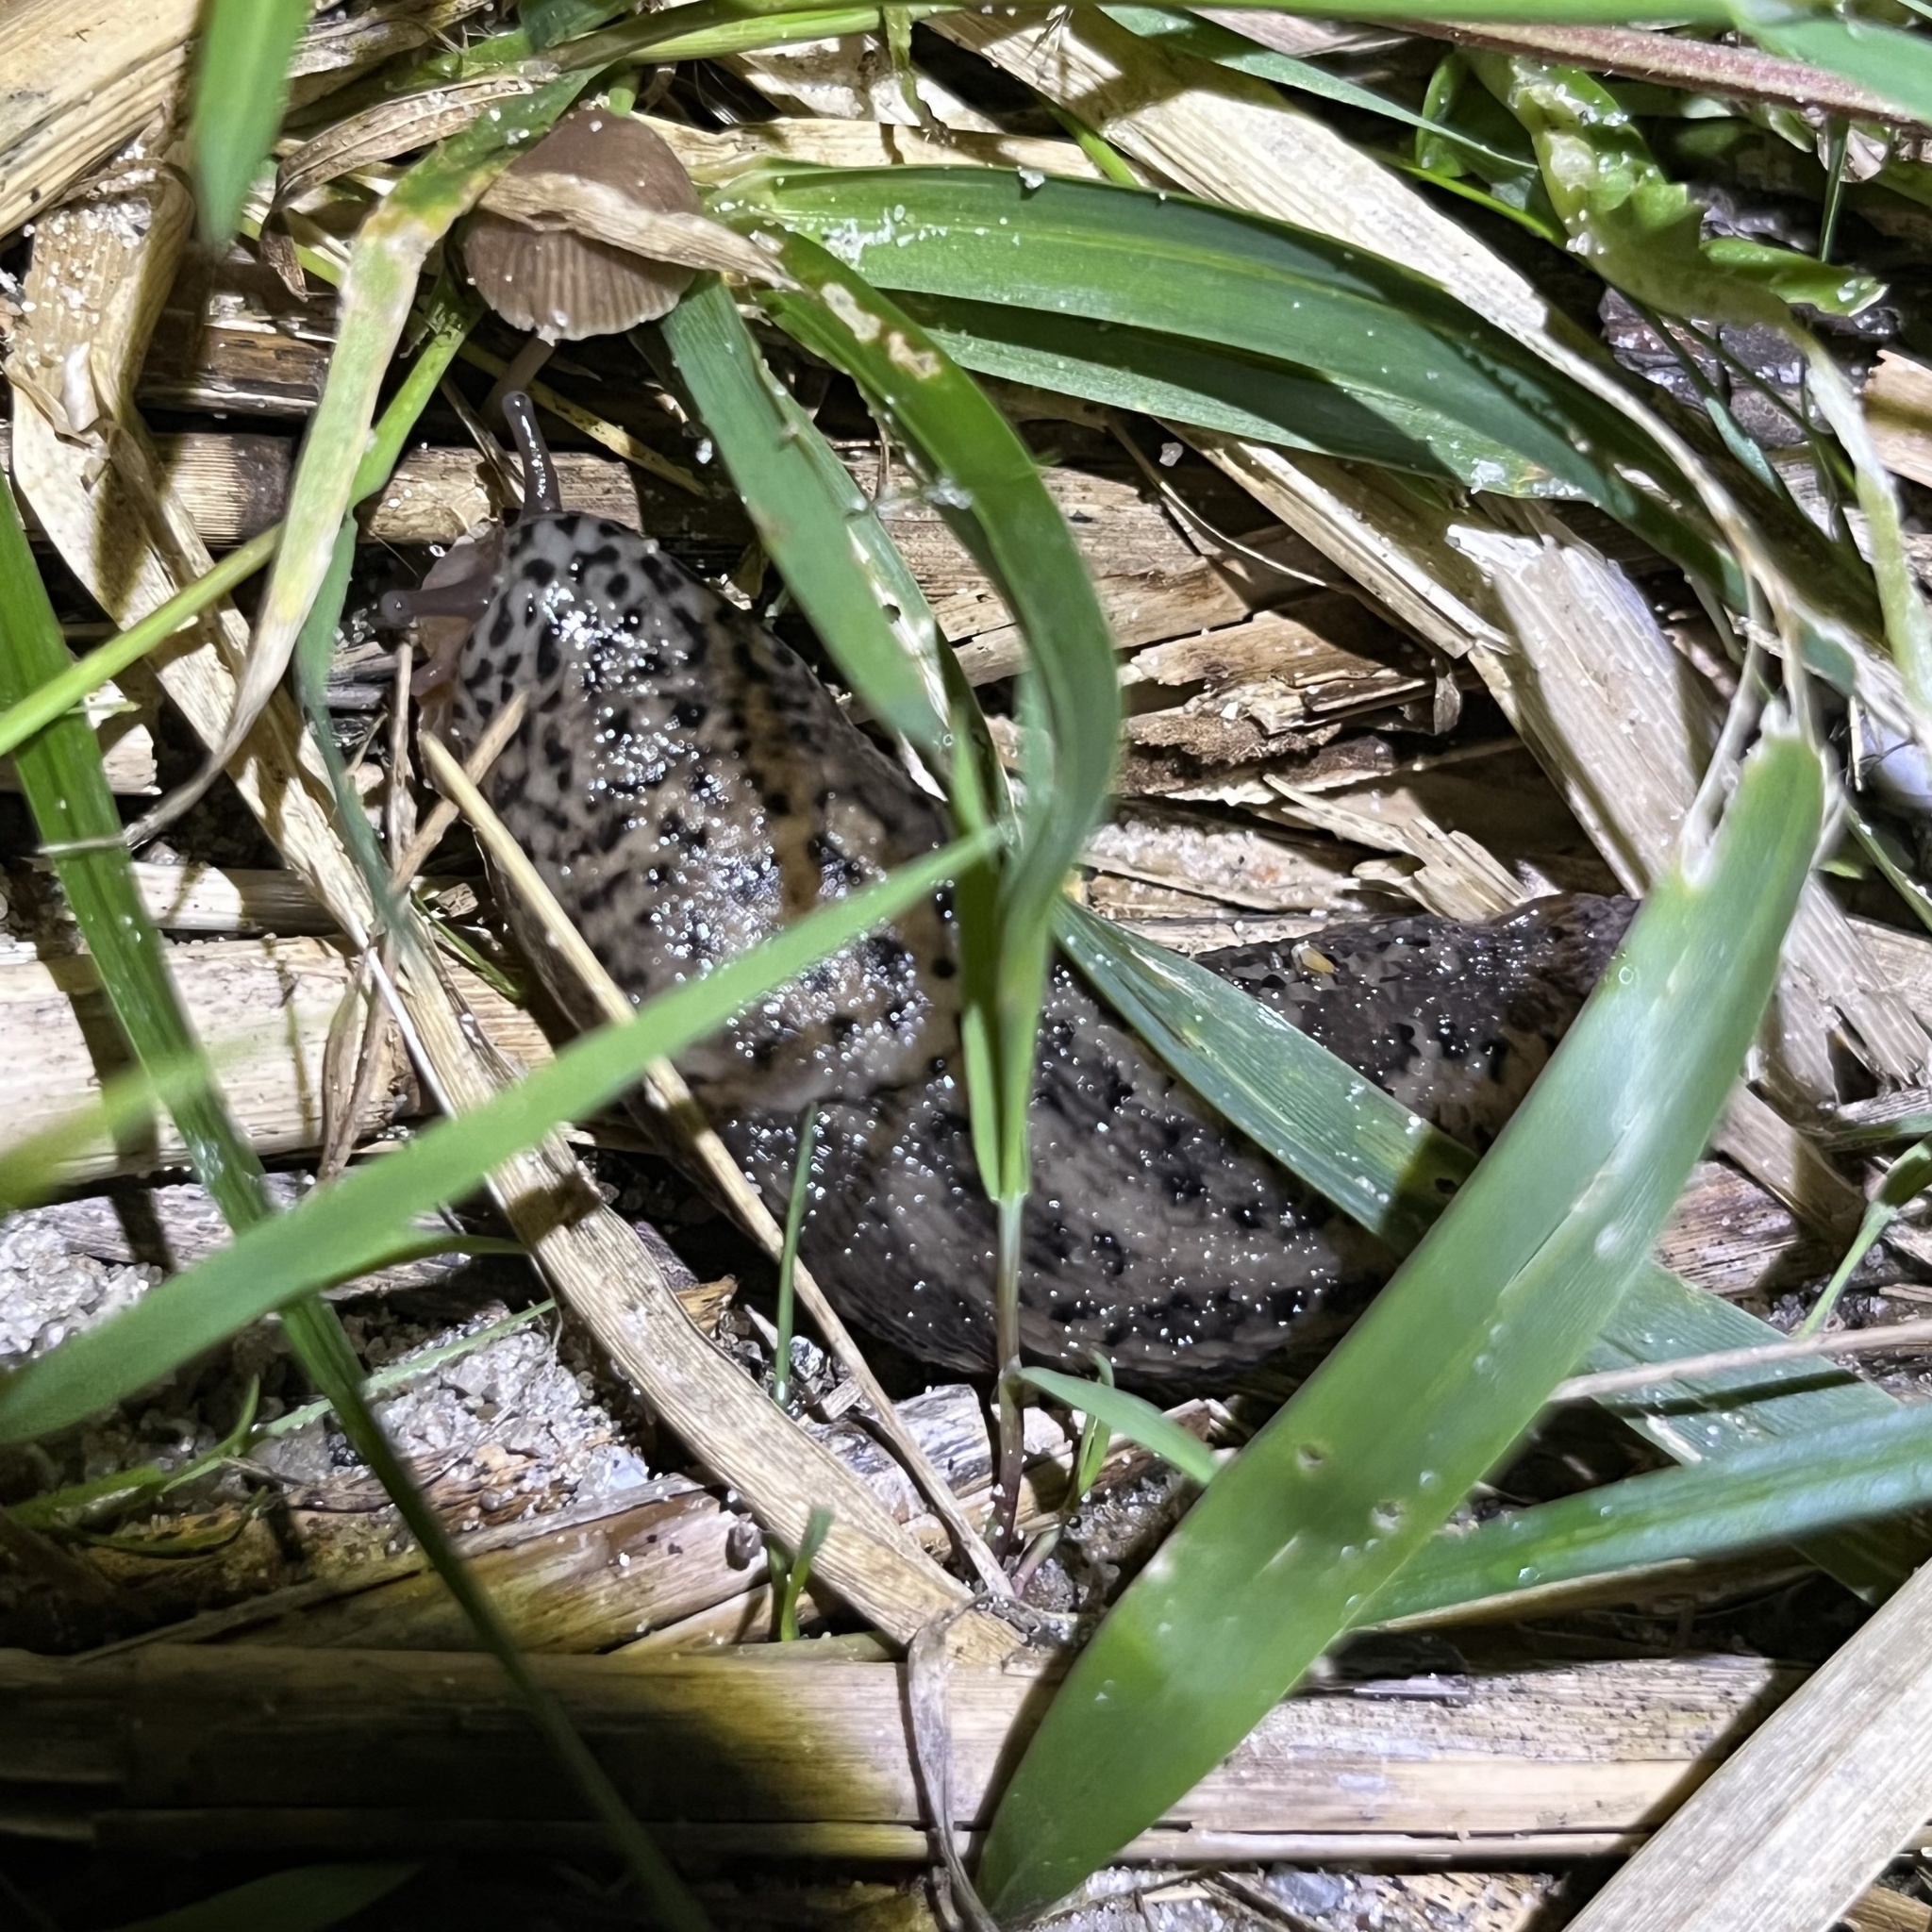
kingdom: Animalia
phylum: Mollusca
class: Gastropoda
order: Stylommatophora
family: Limacidae
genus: Limax
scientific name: Limax maximus
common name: Great grey slug
